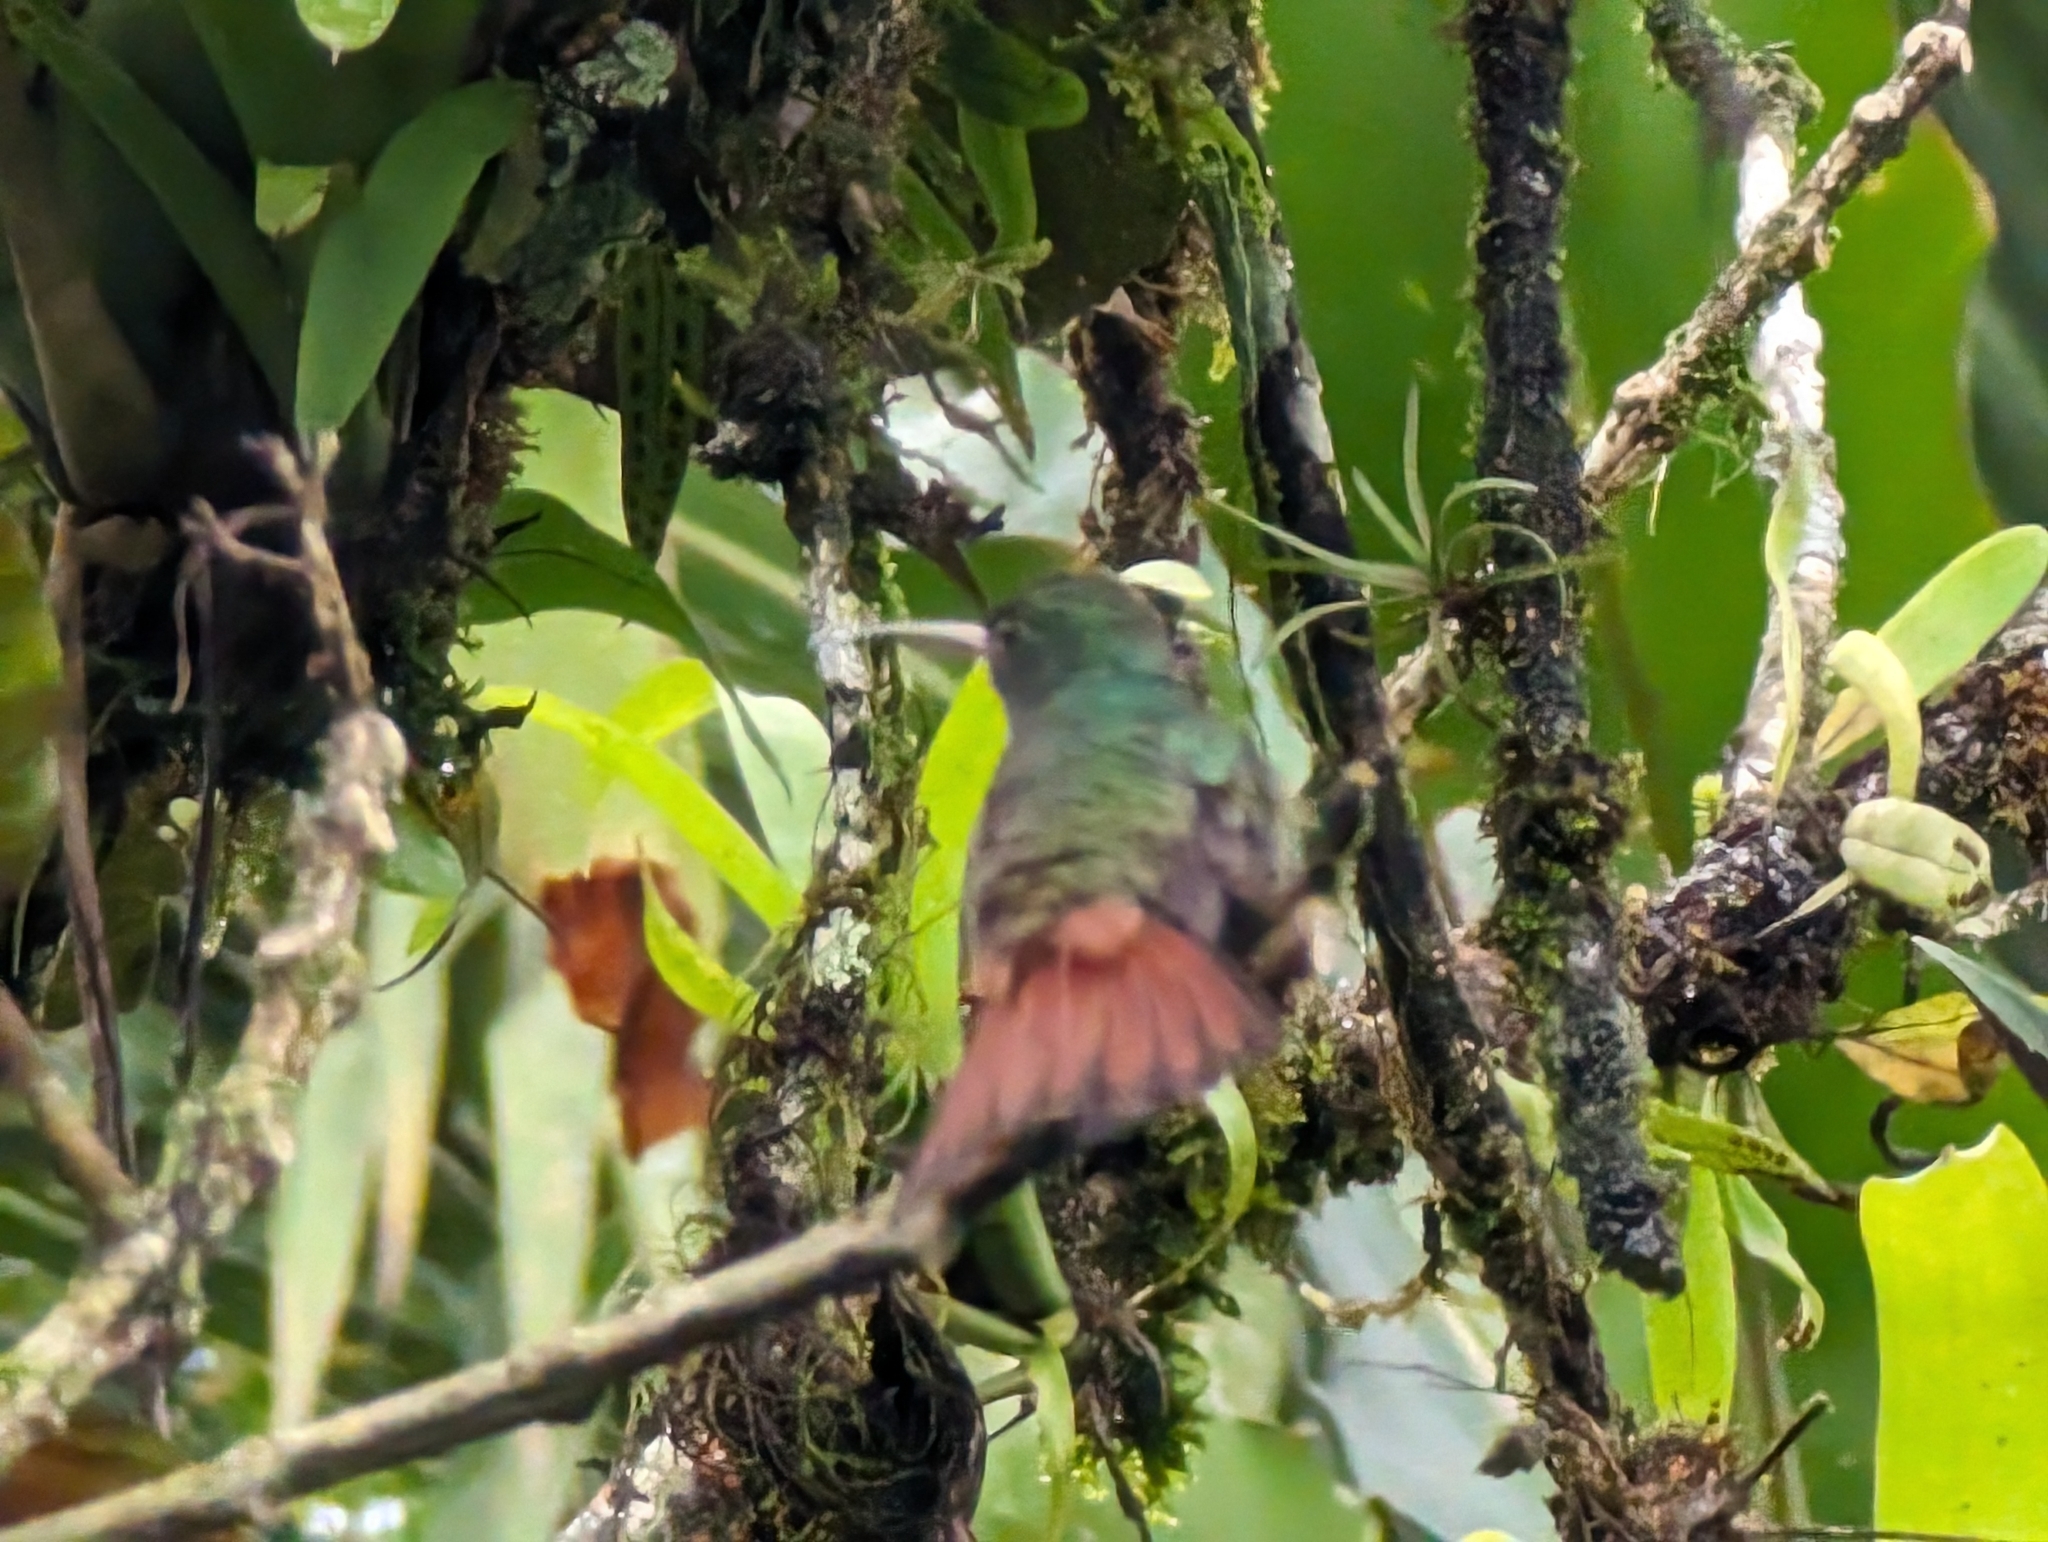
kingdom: Animalia
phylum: Chordata
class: Aves
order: Apodiformes
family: Trochilidae
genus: Amazilia
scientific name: Amazilia tzacatl
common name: Rufous-tailed hummingbird
